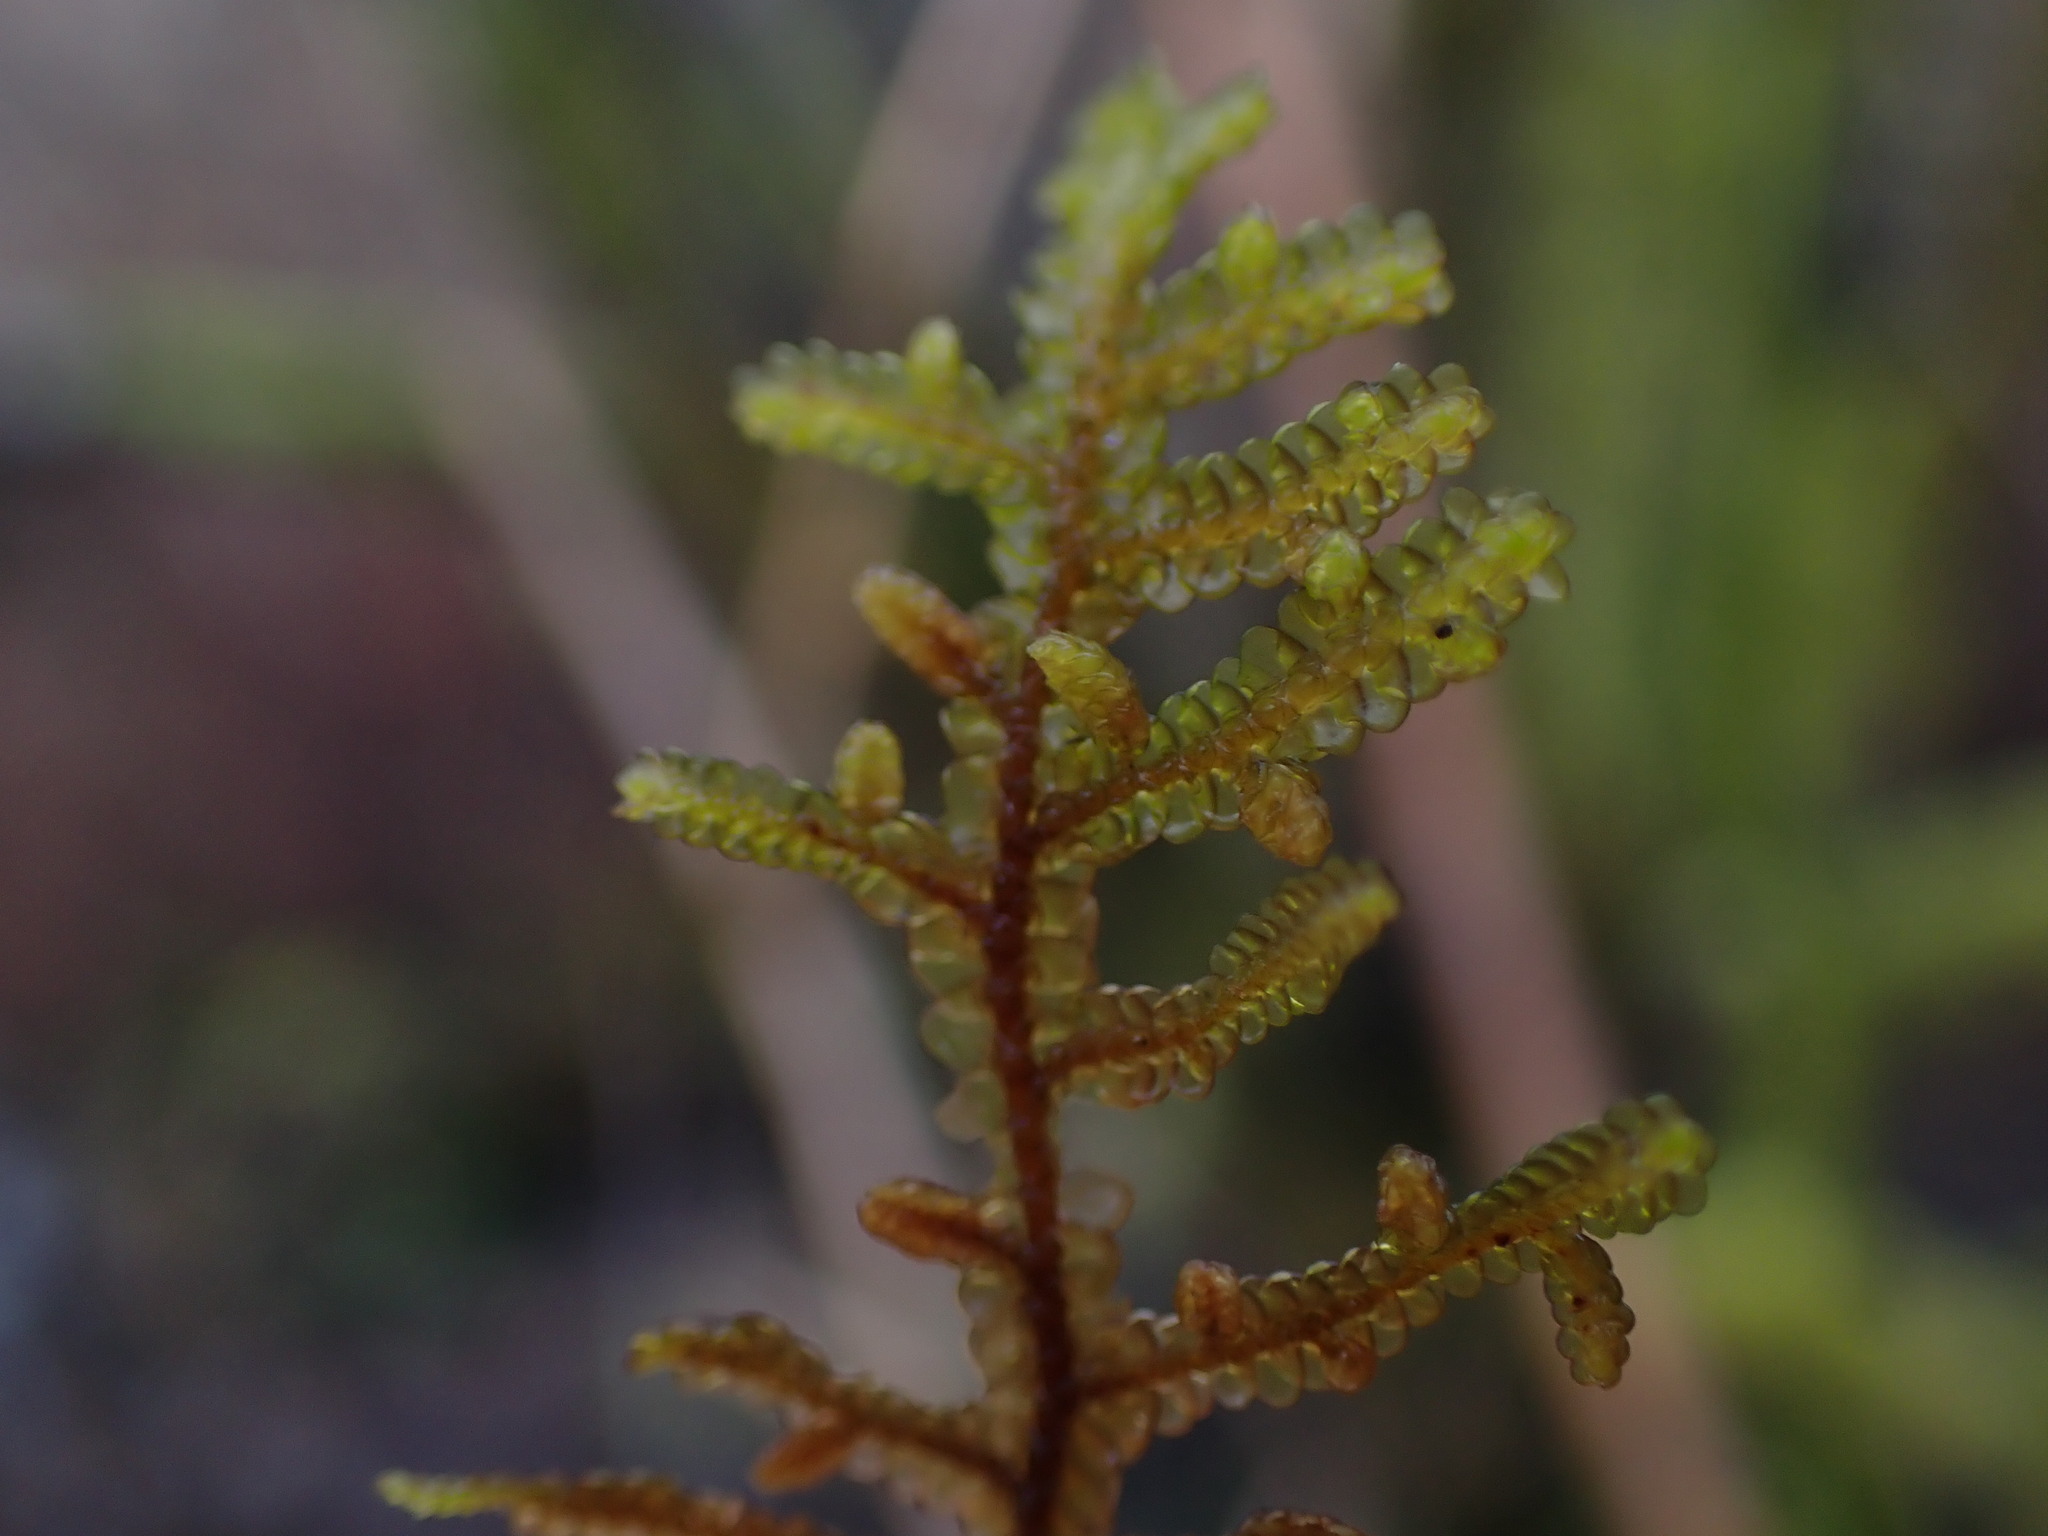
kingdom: Plantae
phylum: Marchantiophyta
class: Jungermanniopsida
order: Porellales
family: Porellaceae
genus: Porella
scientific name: Porella navicularis
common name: Tree ruffle liverwort
